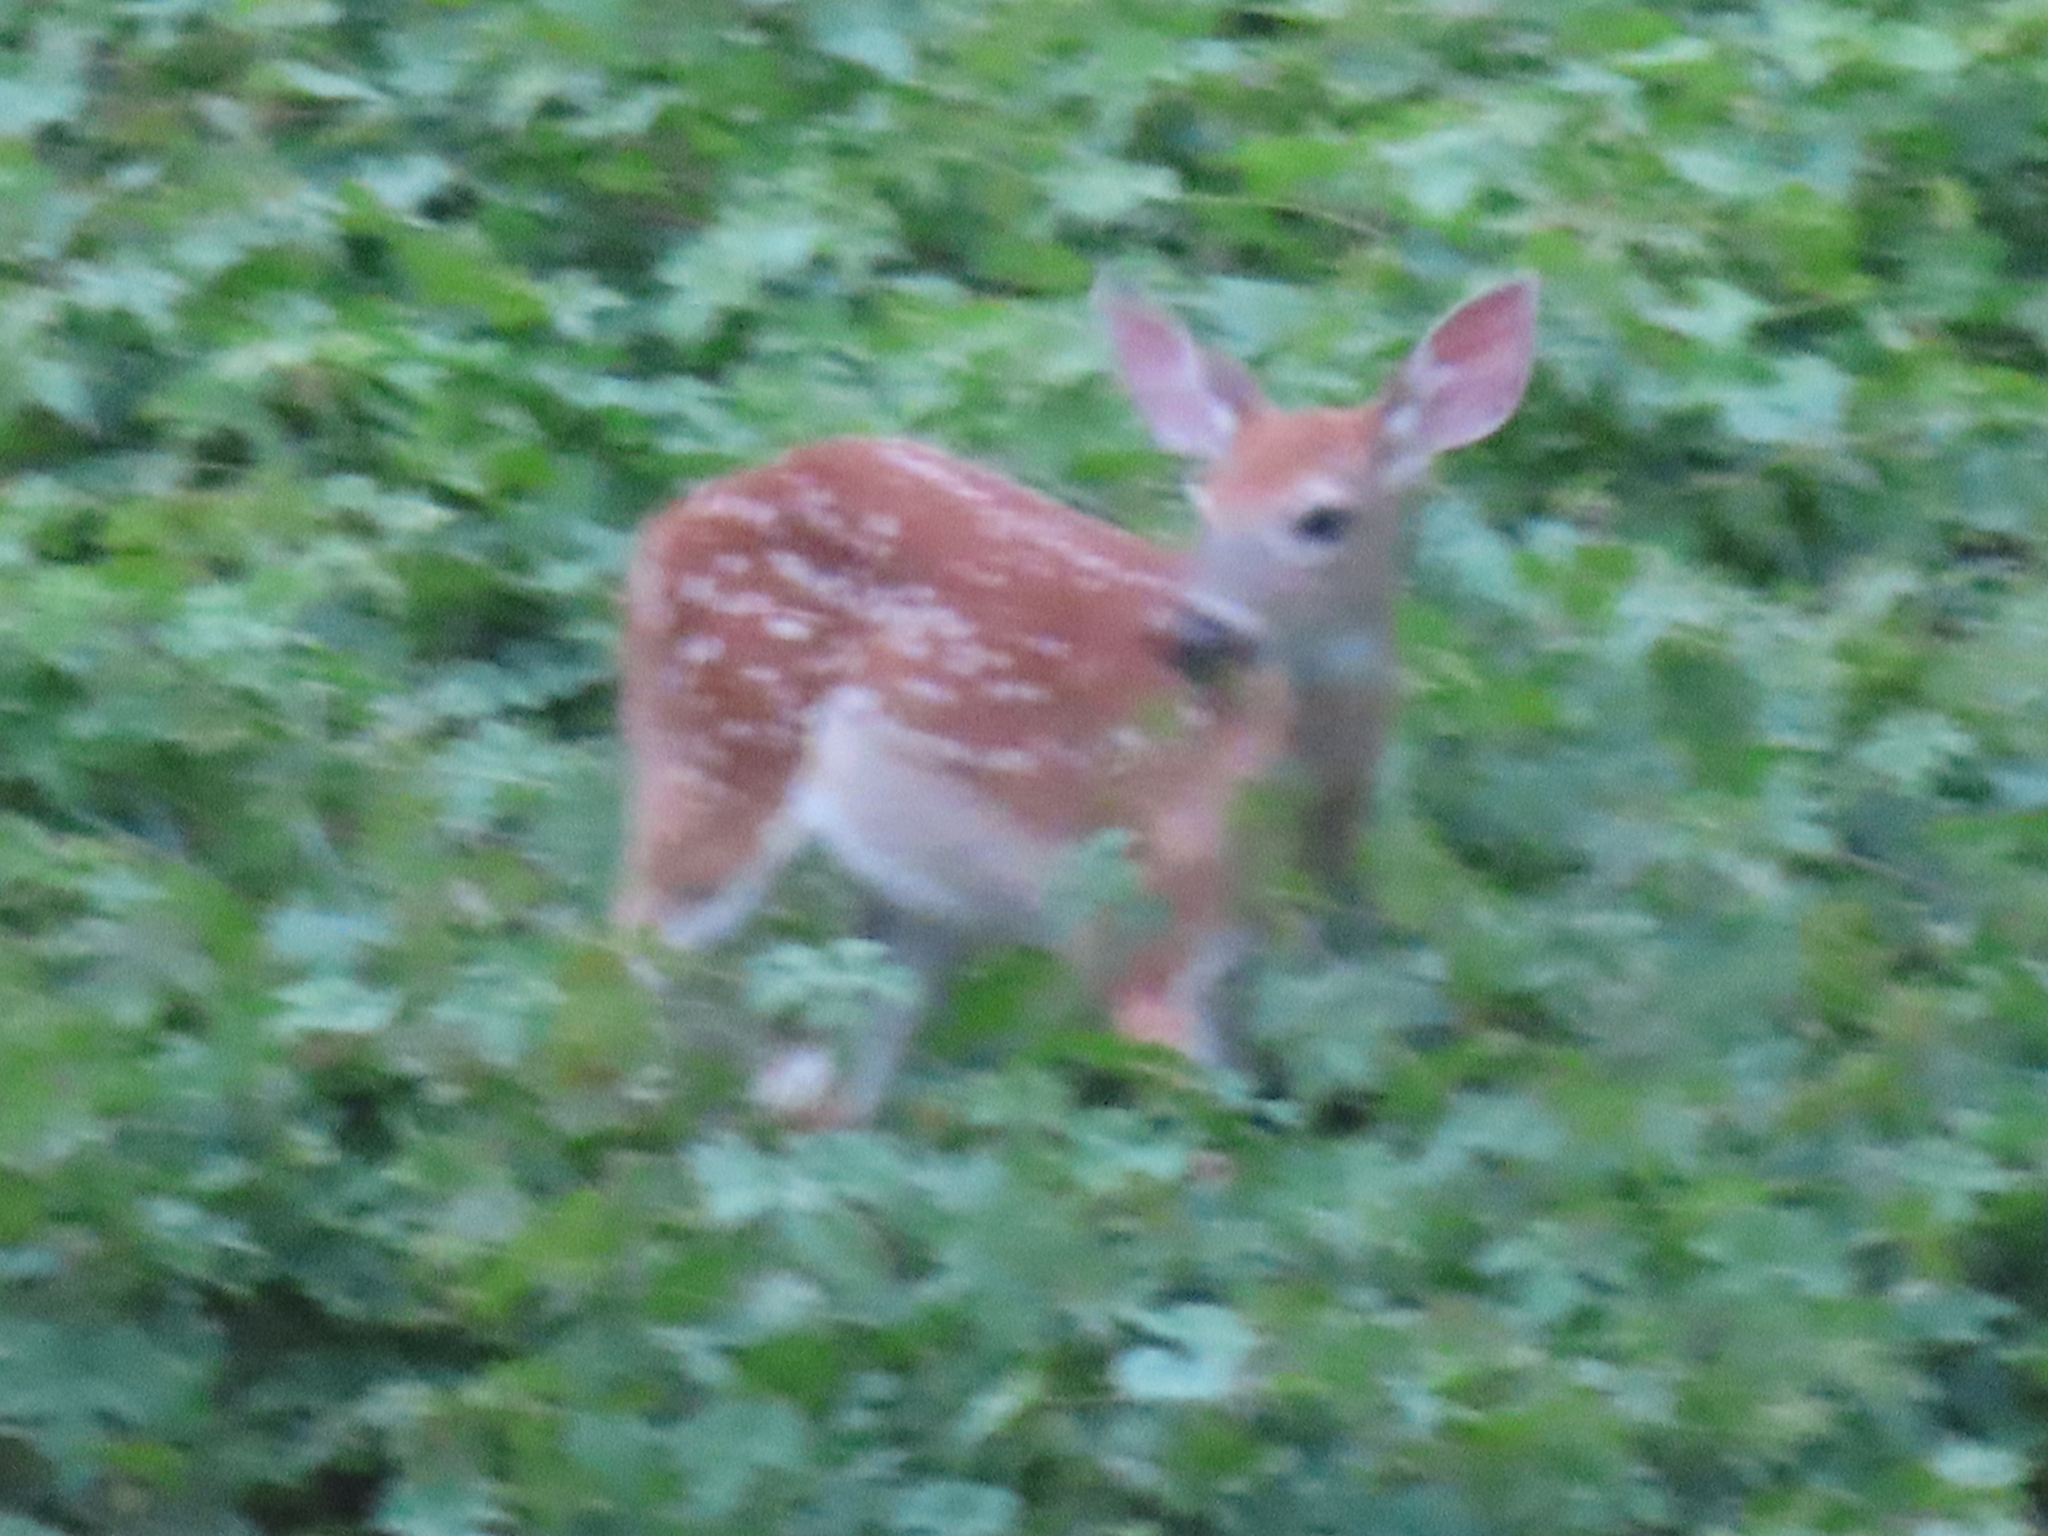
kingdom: Animalia
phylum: Chordata
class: Mammalia
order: Artiodactyla
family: Cervidae
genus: Odocoileus
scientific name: Odocoileus virginianus
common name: White-tailed deer
